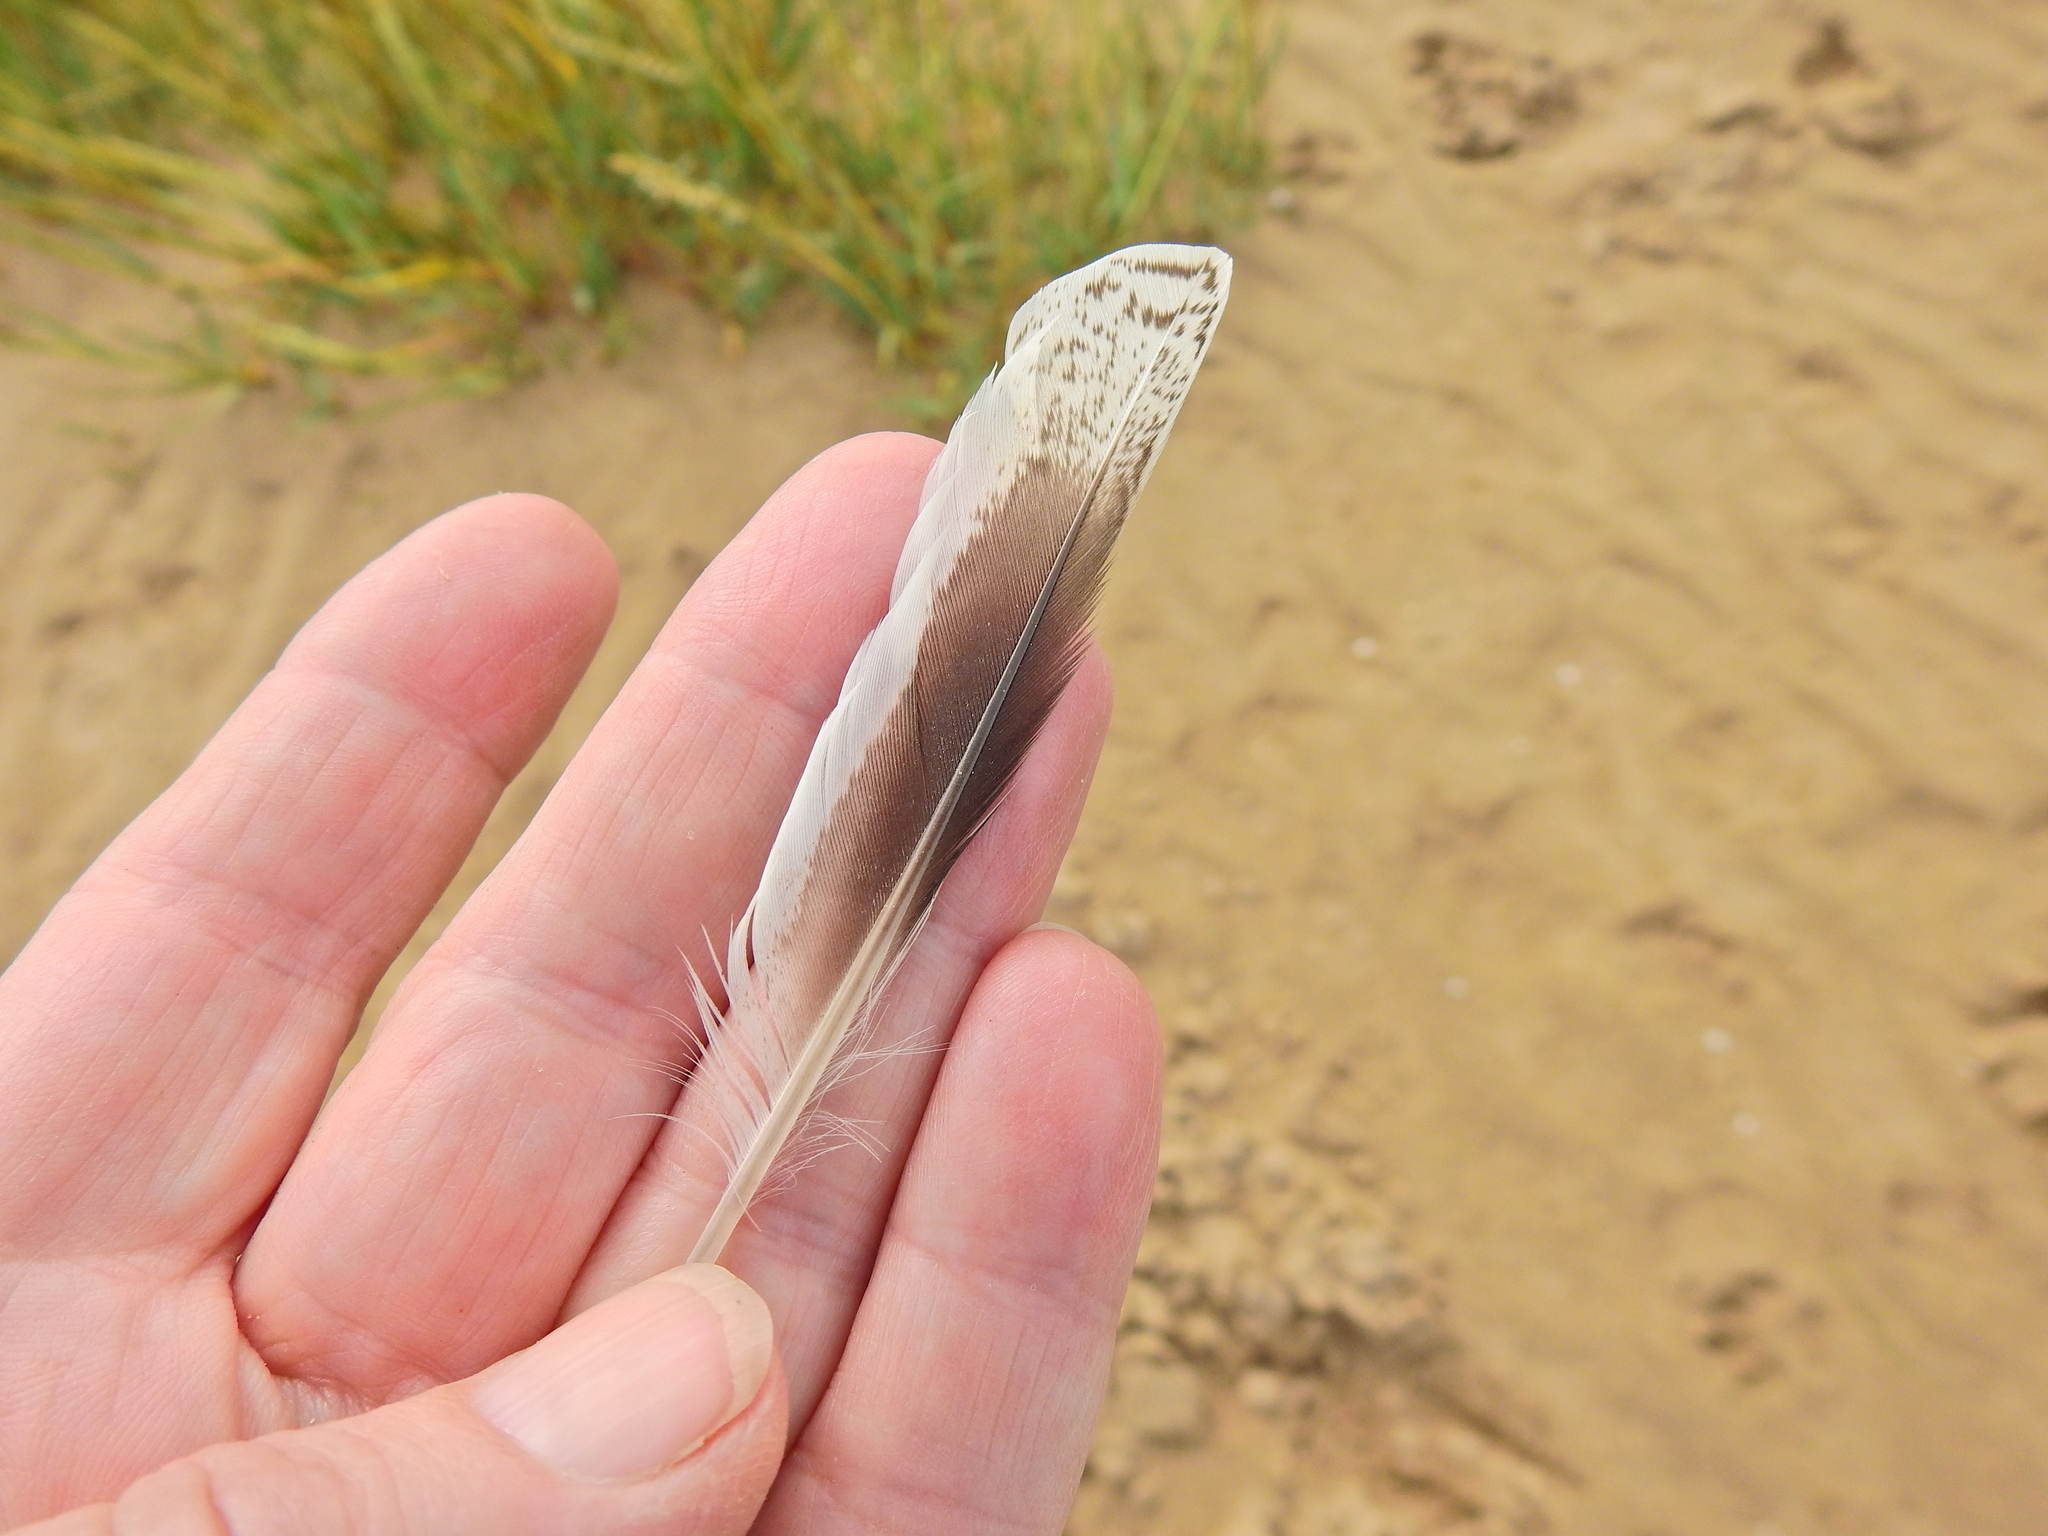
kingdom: Animalia
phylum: Chordata
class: Aves
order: Charadriiformes
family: Scolopacidae
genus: Tringa
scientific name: Tringa totanus
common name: Common redshank
